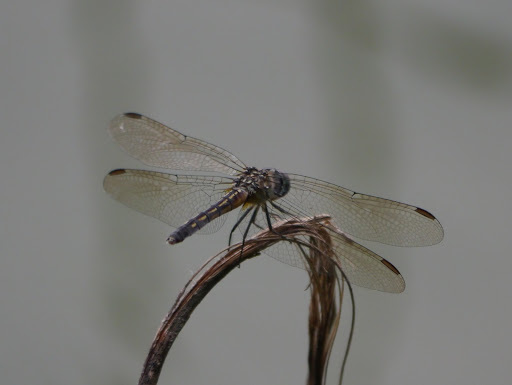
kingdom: Animalia
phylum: Arthropoda
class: Insecta
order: Odonata
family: Libellulidae
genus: Pachydiplax
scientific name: Pachydiplax longipennis
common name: Blue dasher
